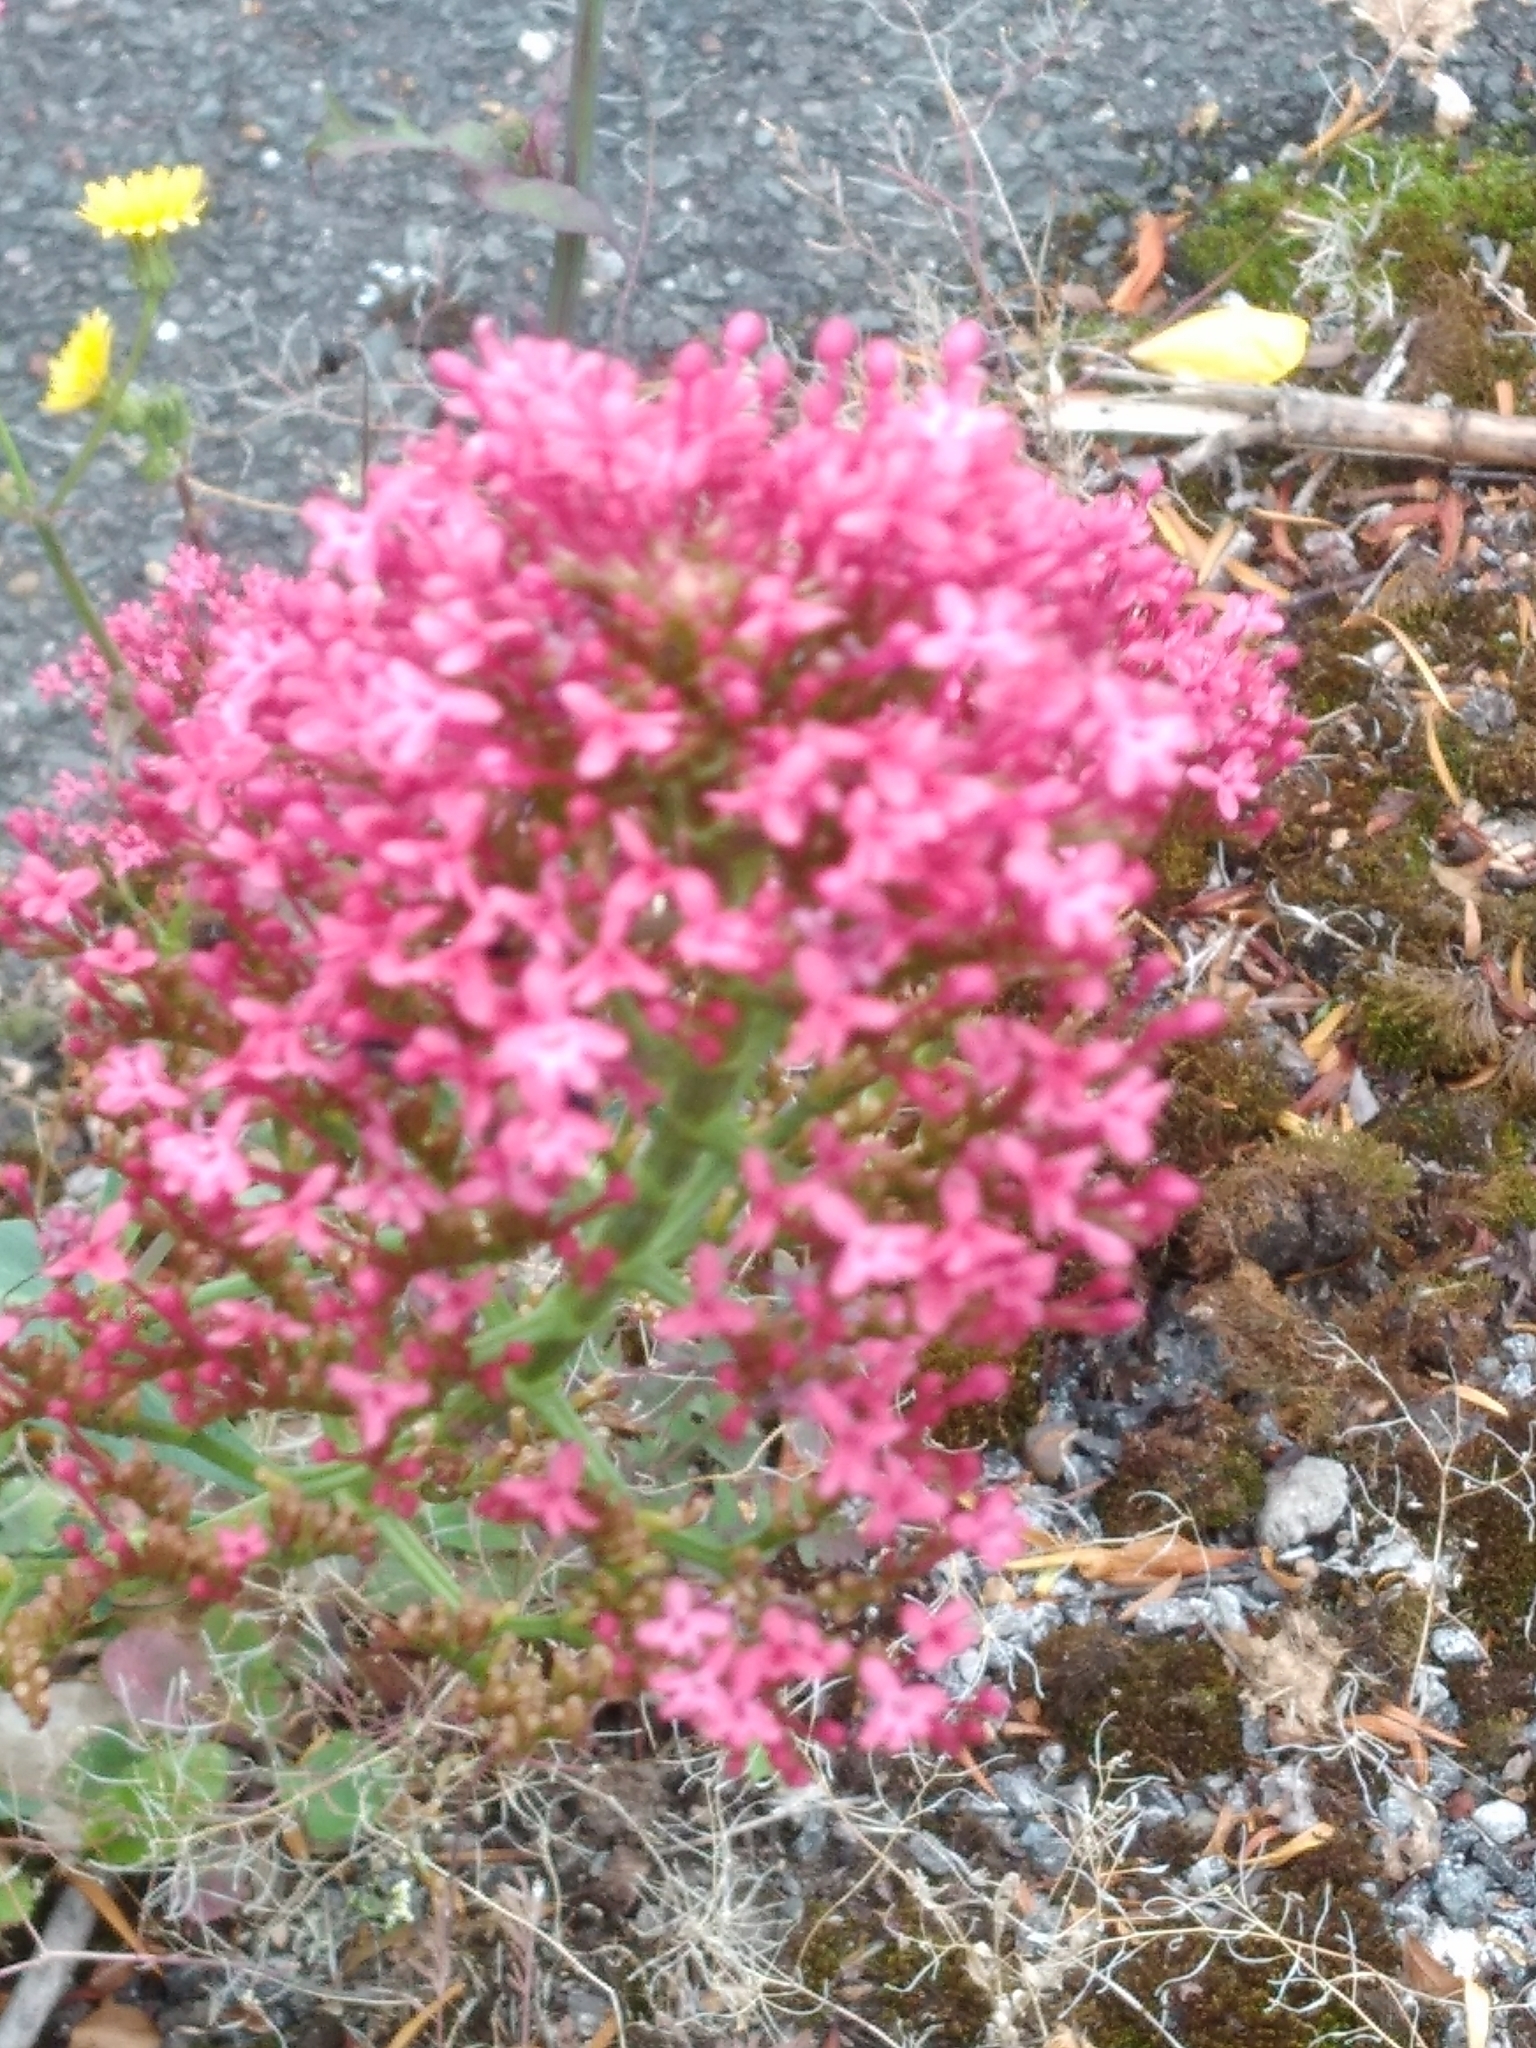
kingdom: Plantae
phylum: Tracheophyta
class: Magnoliopsida
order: Dipsacales
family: Caprifoliaceae
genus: Centranthus
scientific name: Centranthus ruber
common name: Red valerian
